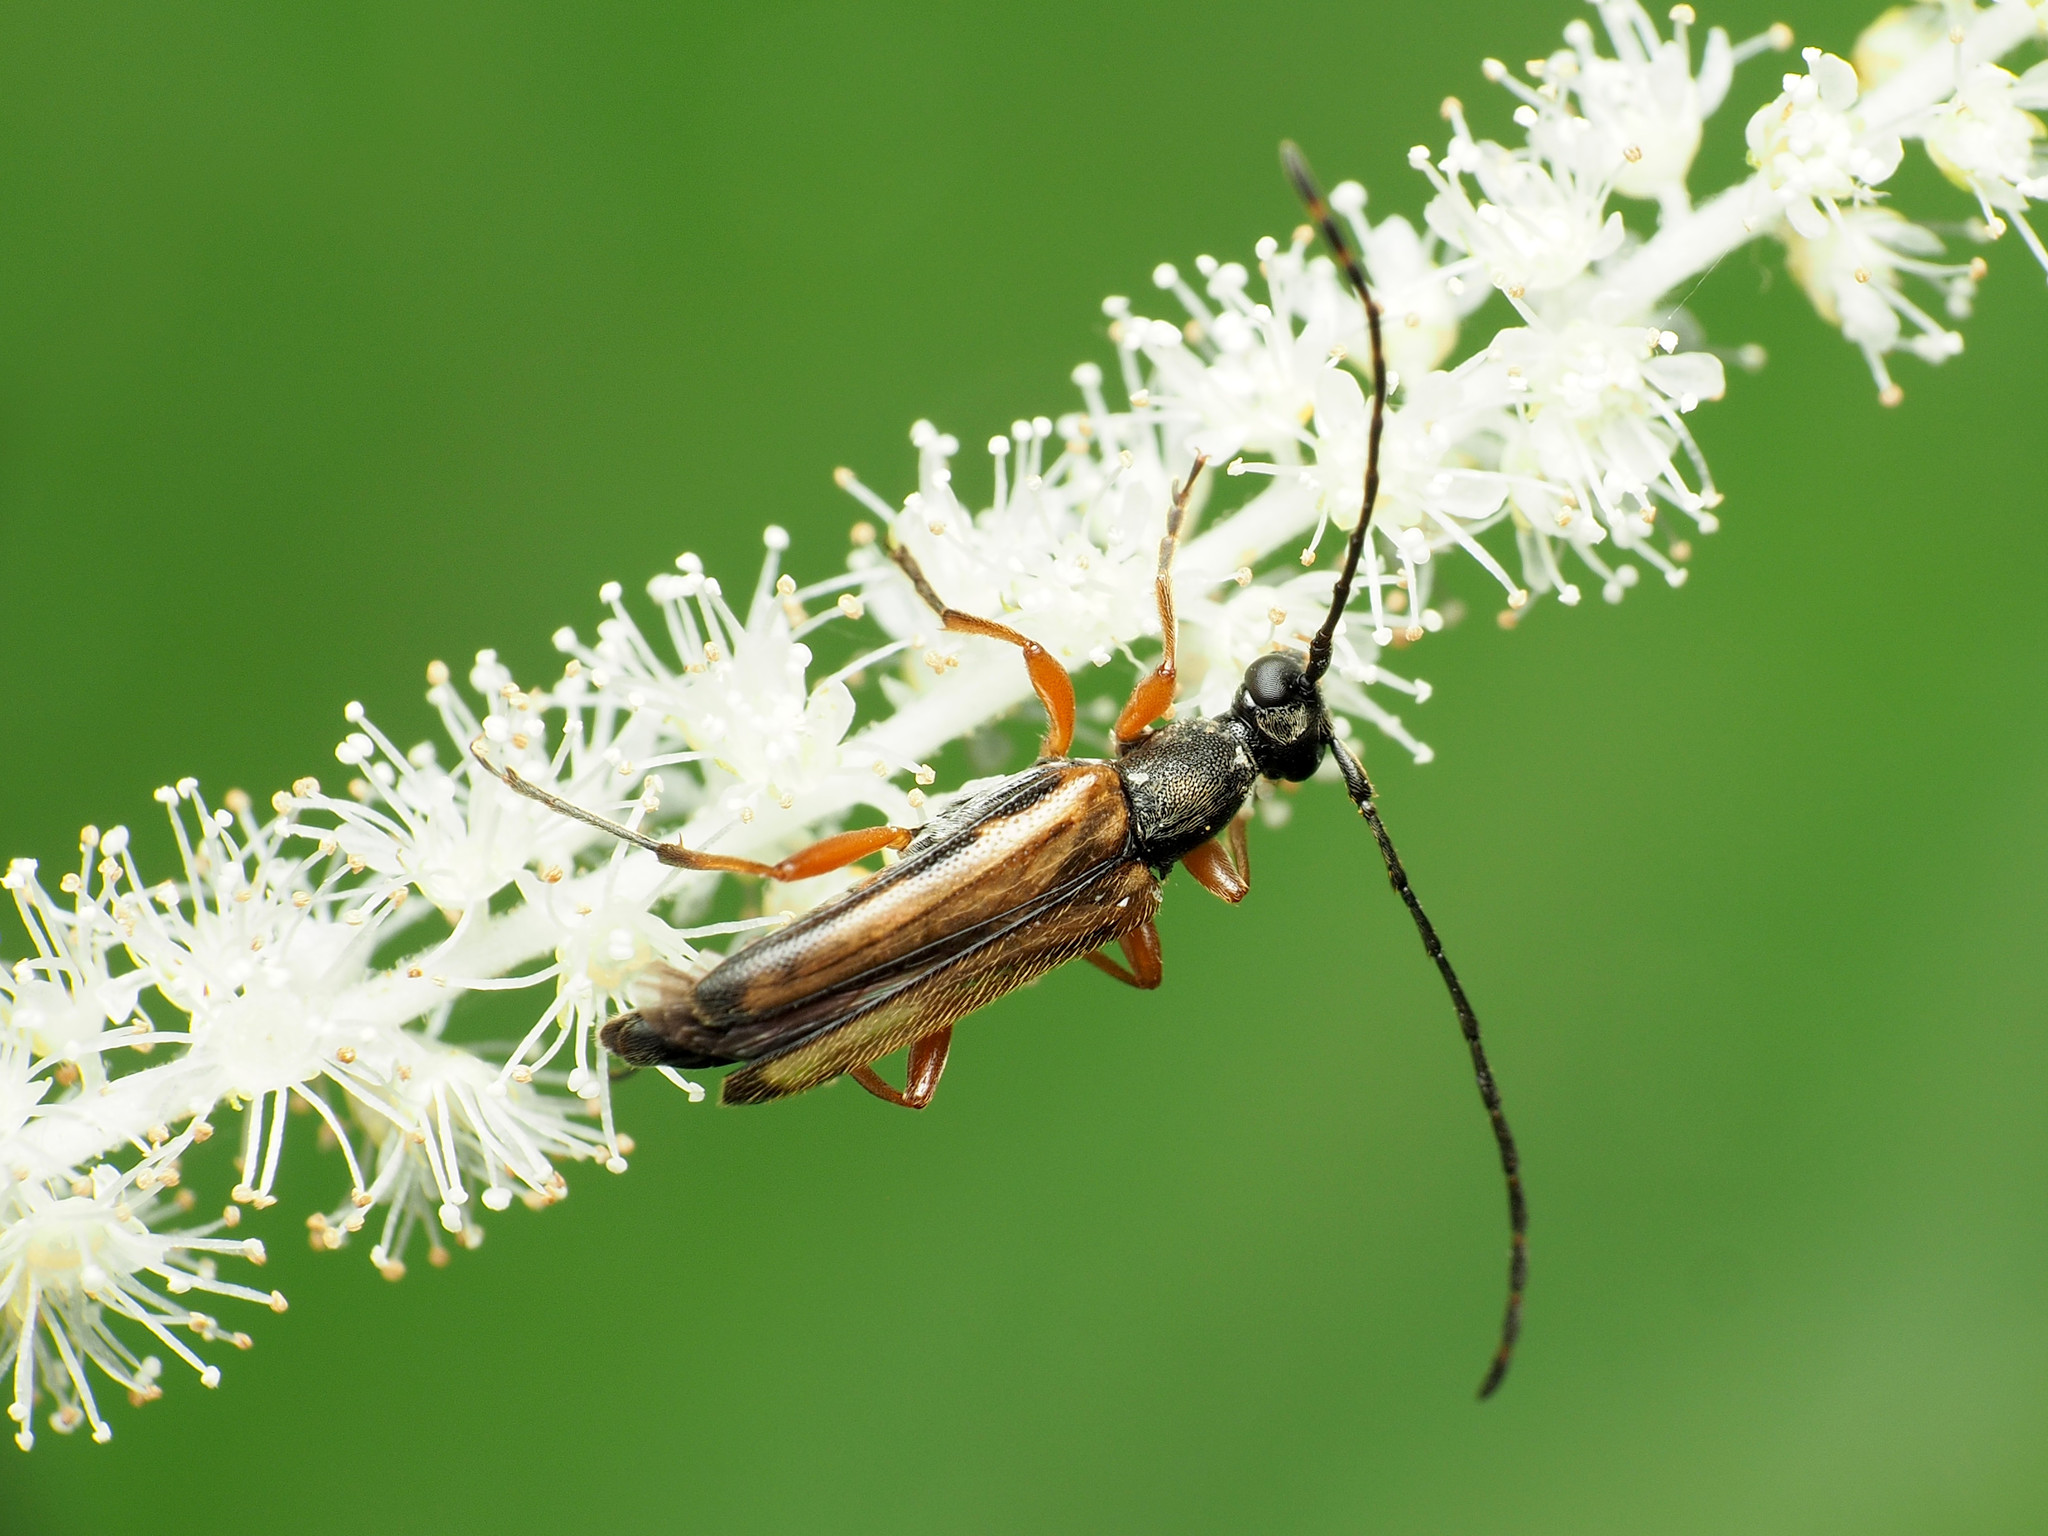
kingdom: Animalia
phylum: Arthropoda
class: Insecta
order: Coleoptera
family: Cerambycidae
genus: Analeptura
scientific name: Analeptura lineola
